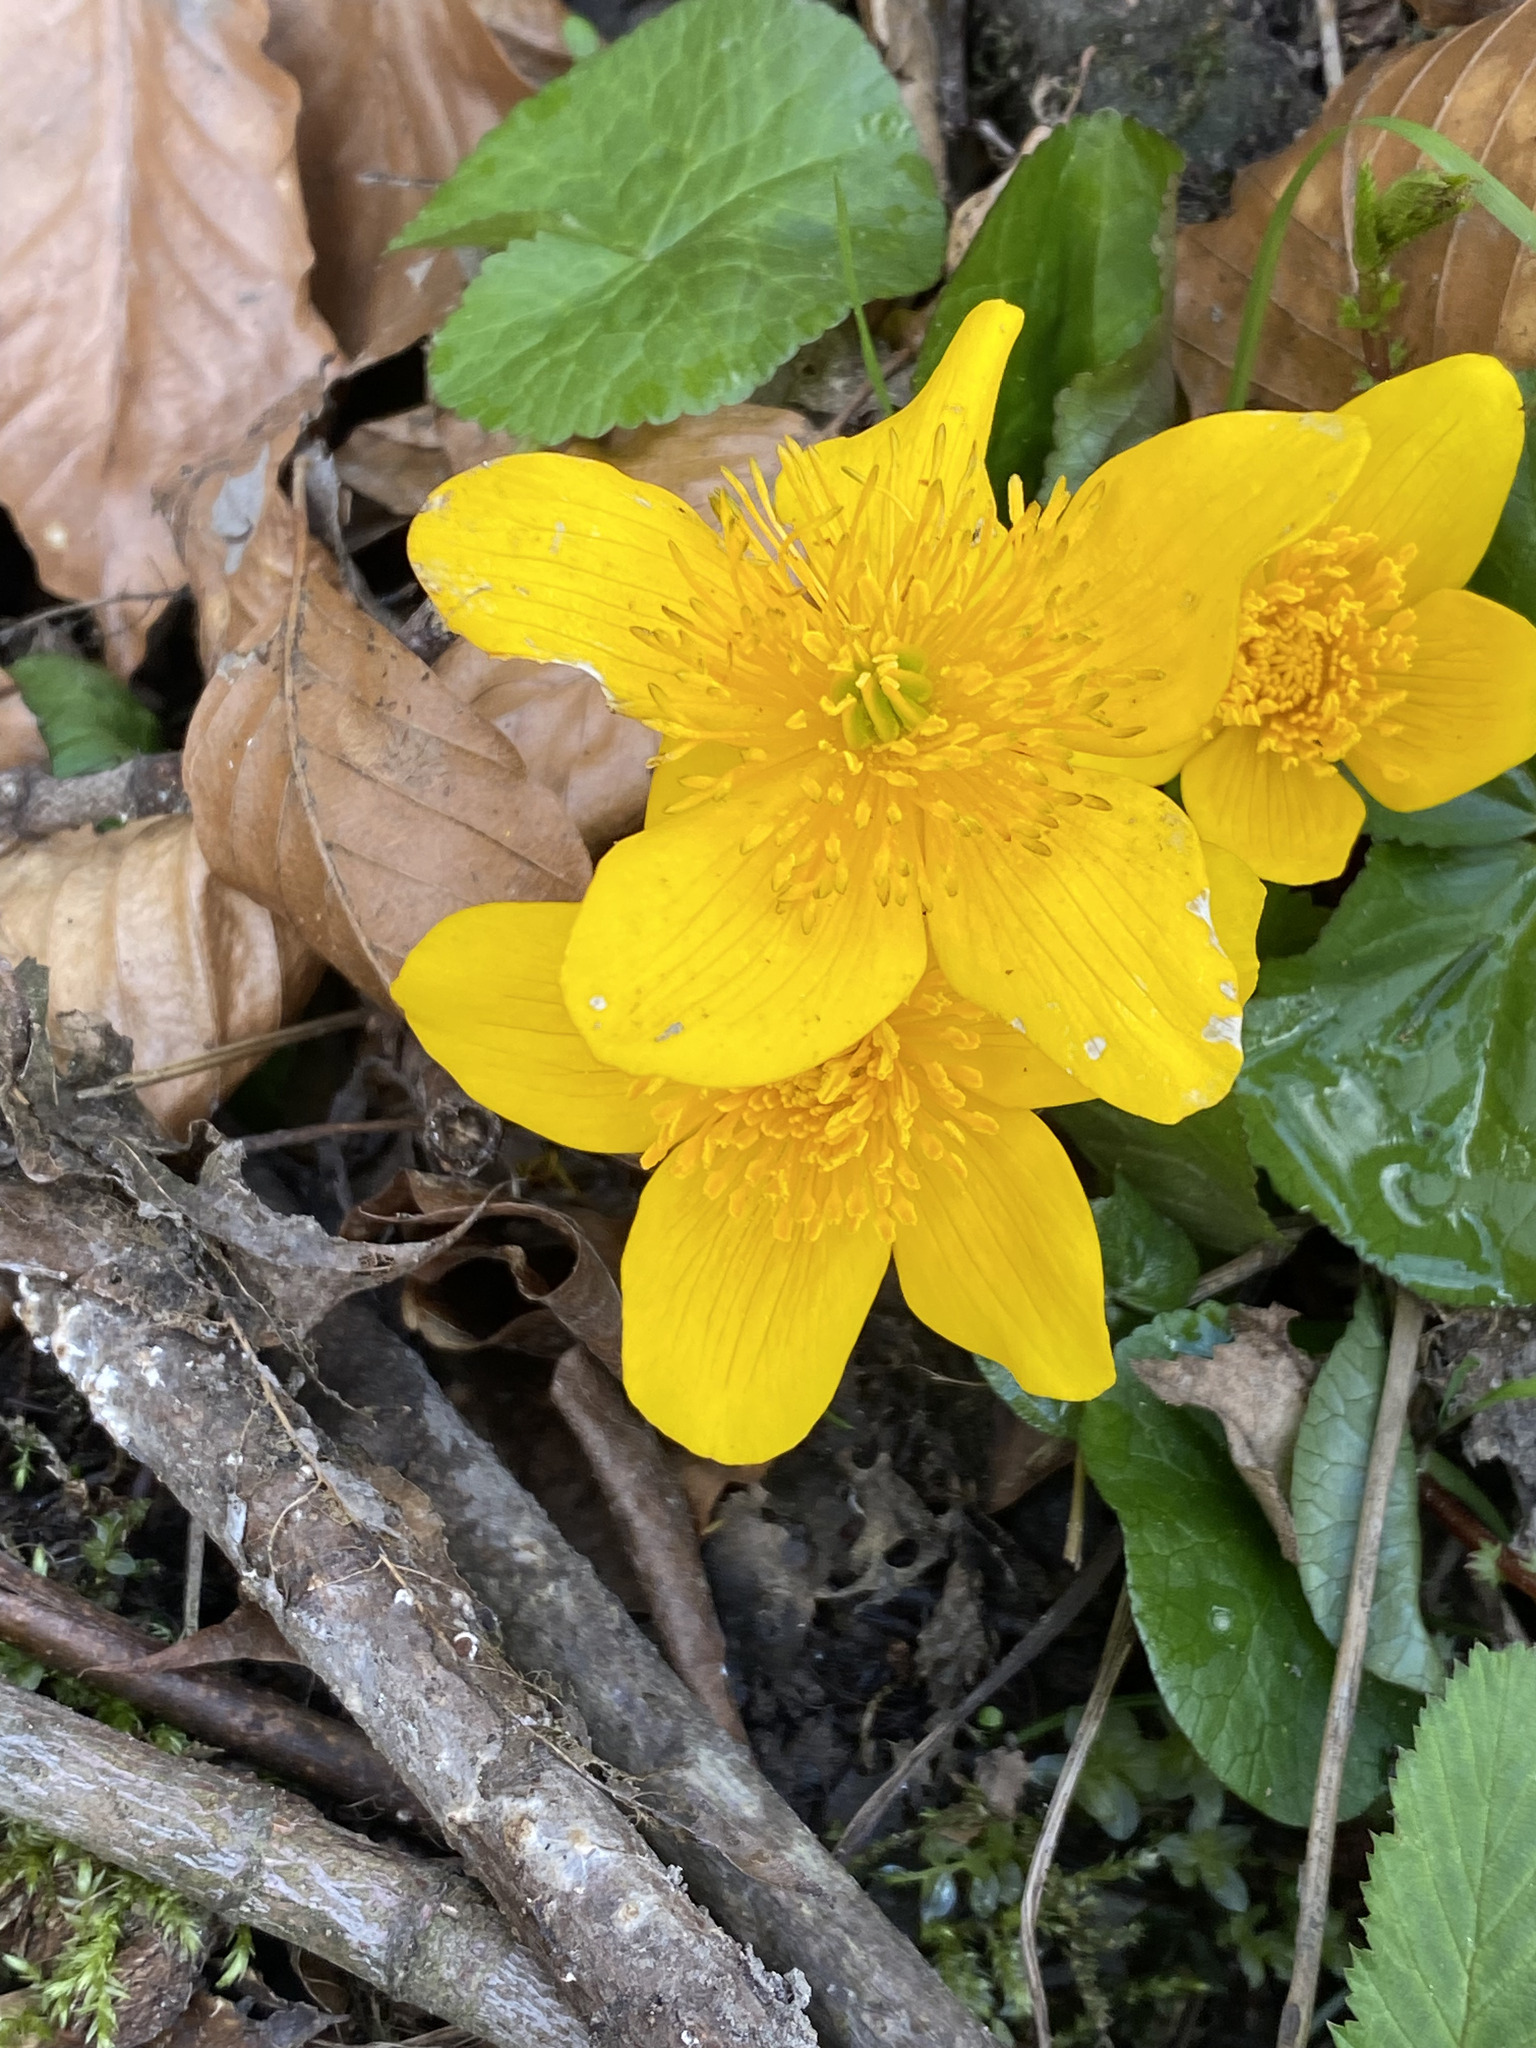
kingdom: Plantae
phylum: Tracheophyta
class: Magnoliopsida
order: Ranunculales
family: Ranunculaceae
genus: Caltha
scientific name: Caltha palustris
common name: Marsh marigold
